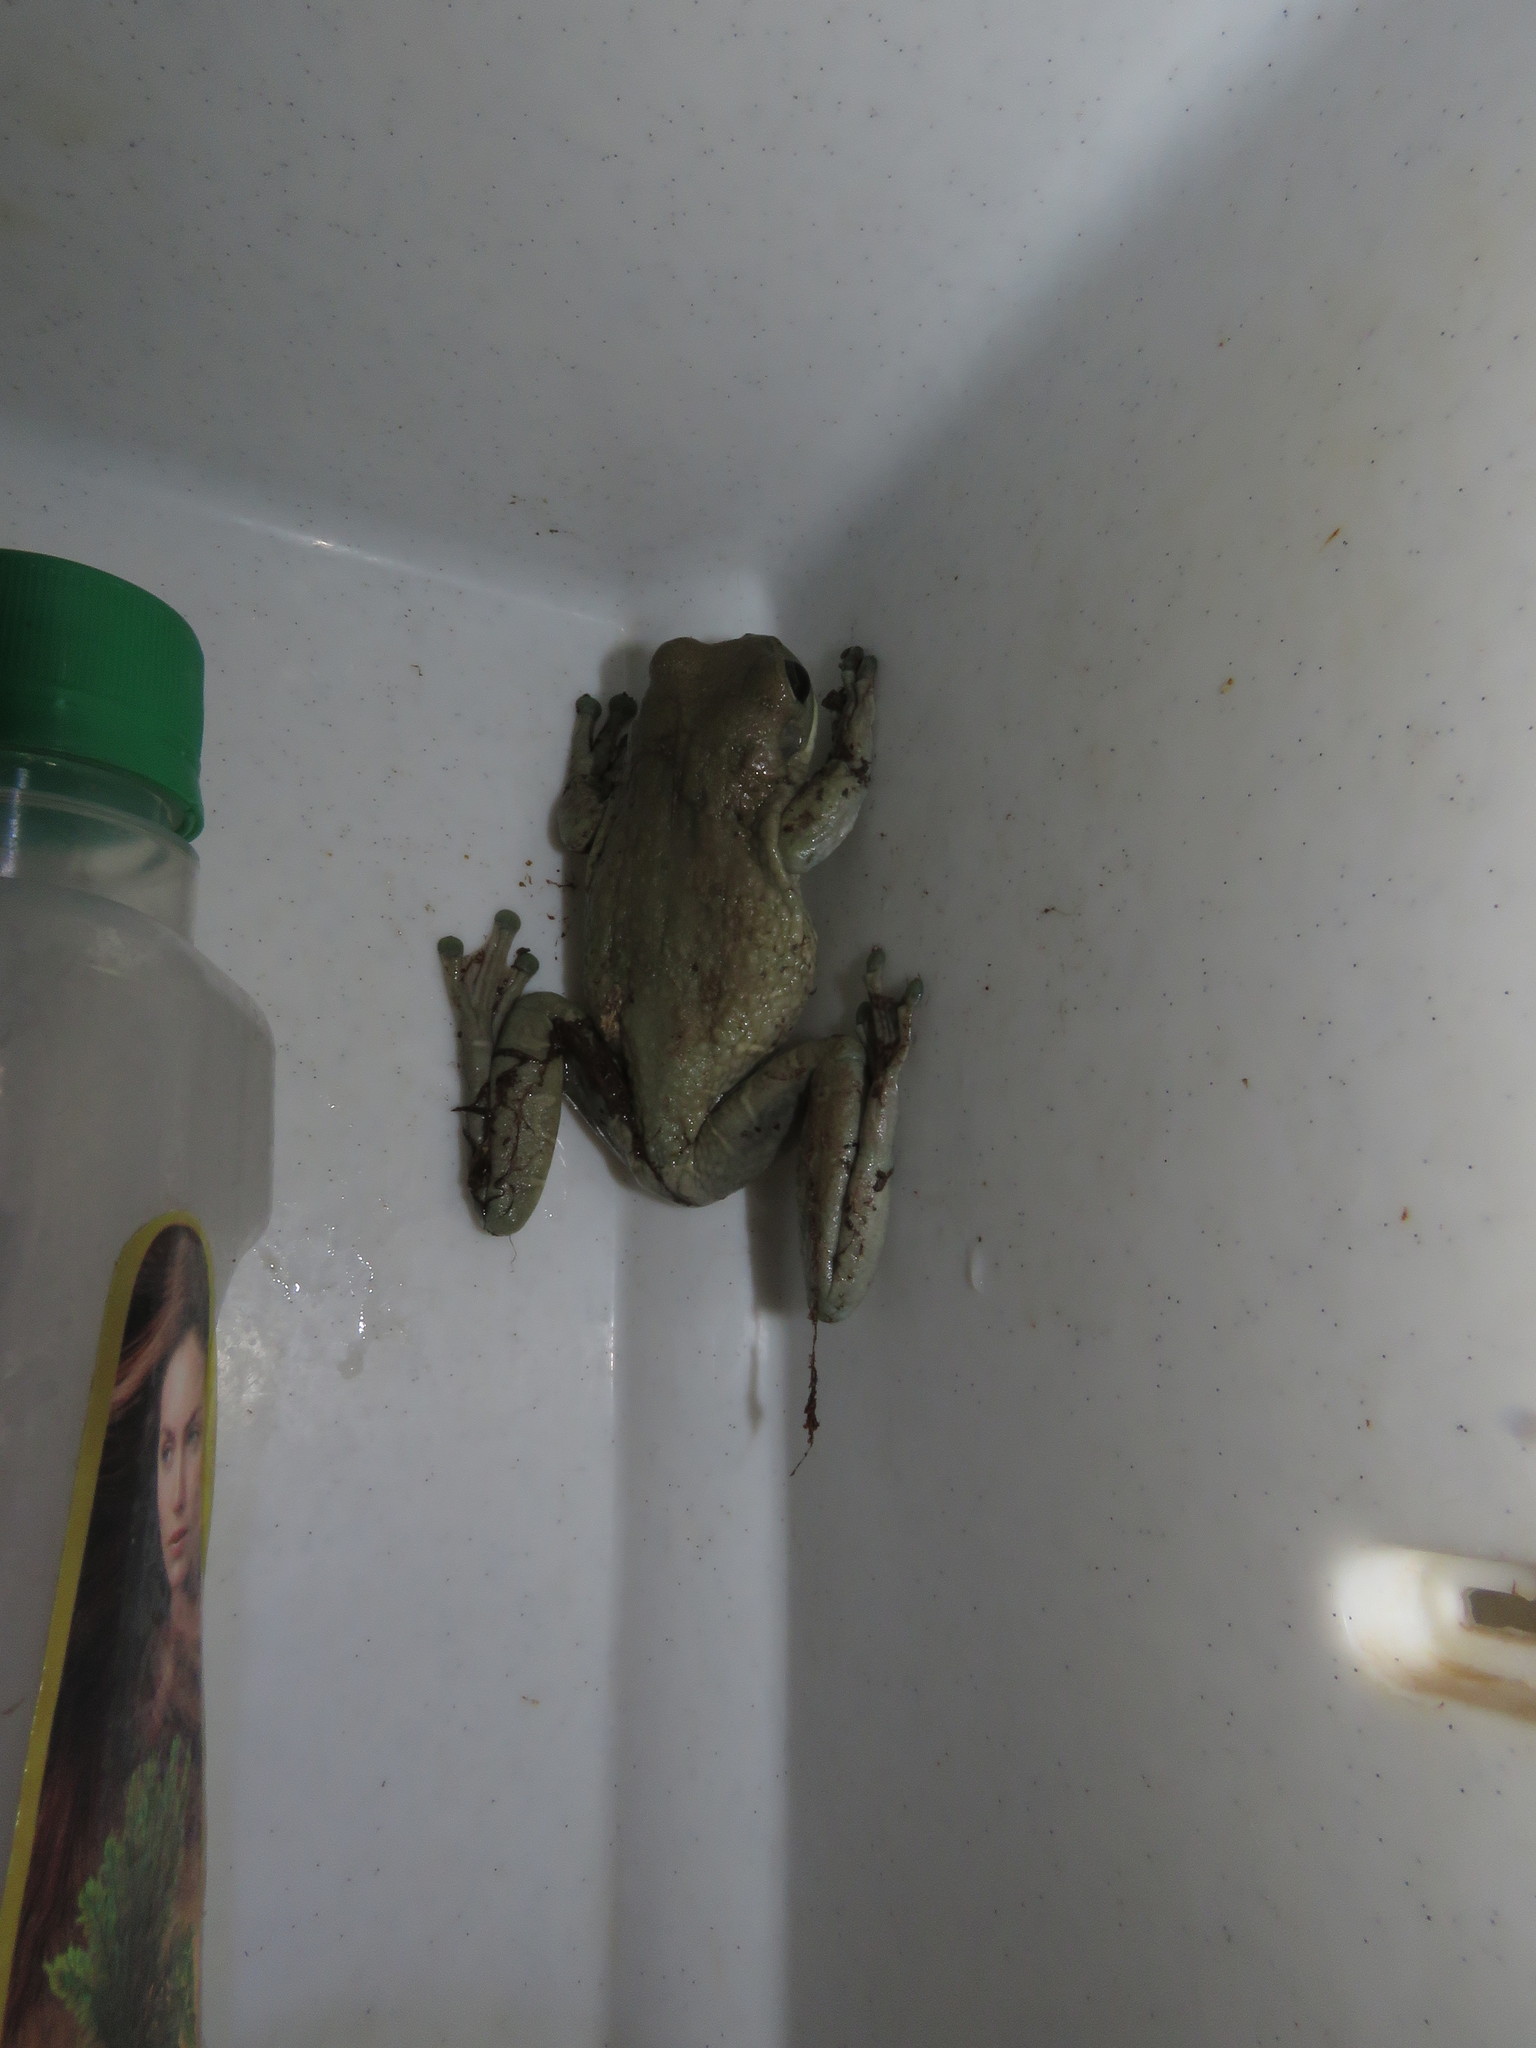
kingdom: Animalia
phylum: Chordata
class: Amphibia
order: Anura
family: Hylidae
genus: Trachycephalus
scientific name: Trachycephalus typhonius
